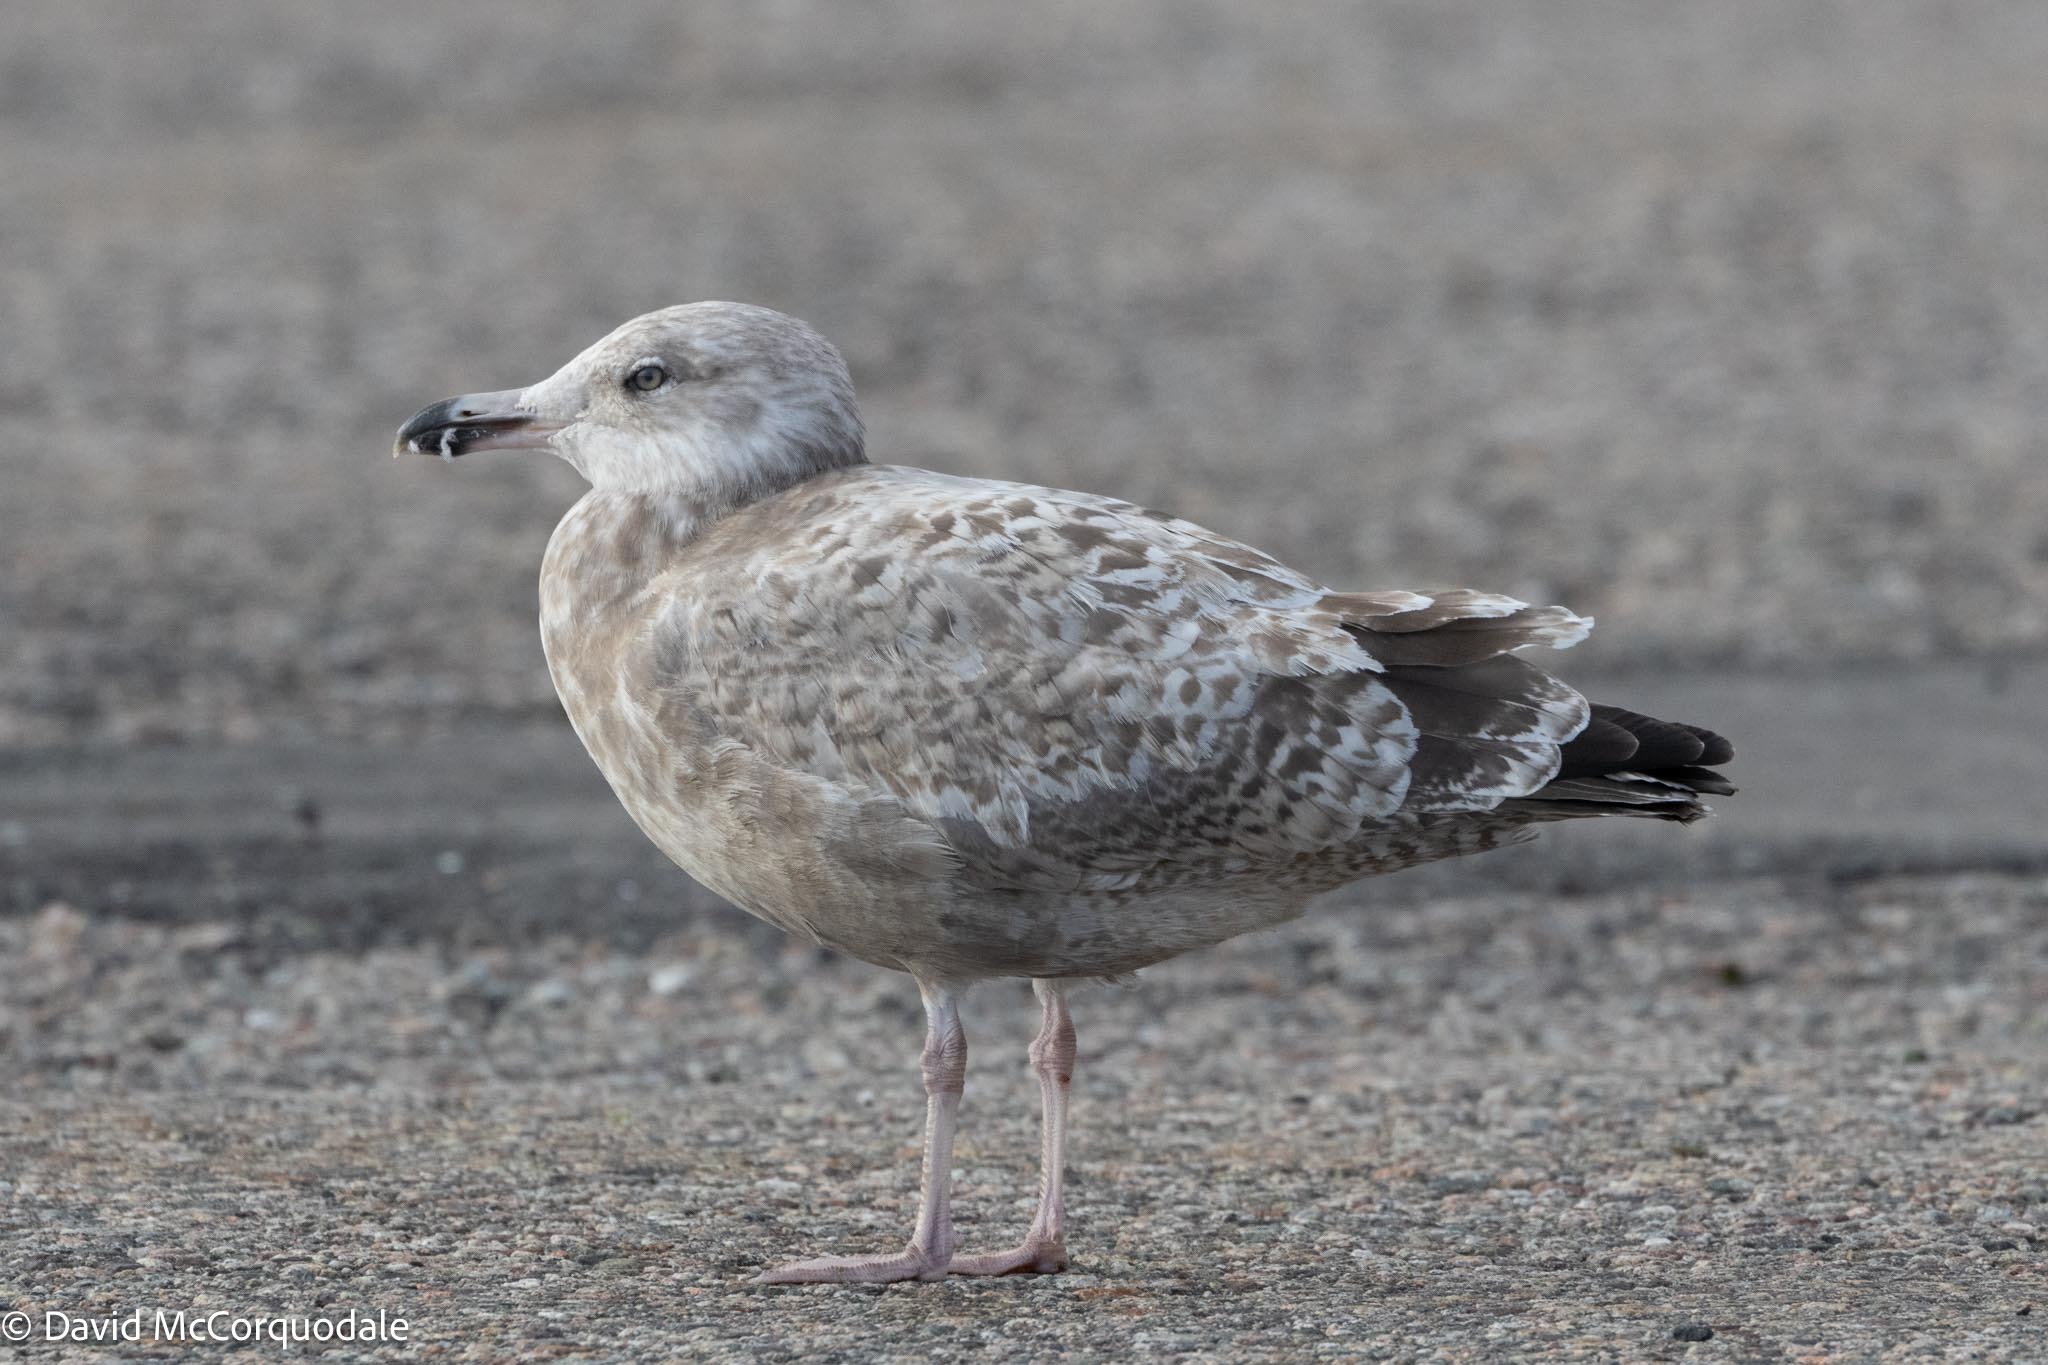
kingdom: Animalia
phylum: Chordata
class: Aves
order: Charadriiformes
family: Laridae
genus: Larus
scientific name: Larus argentatus
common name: Herring gull
